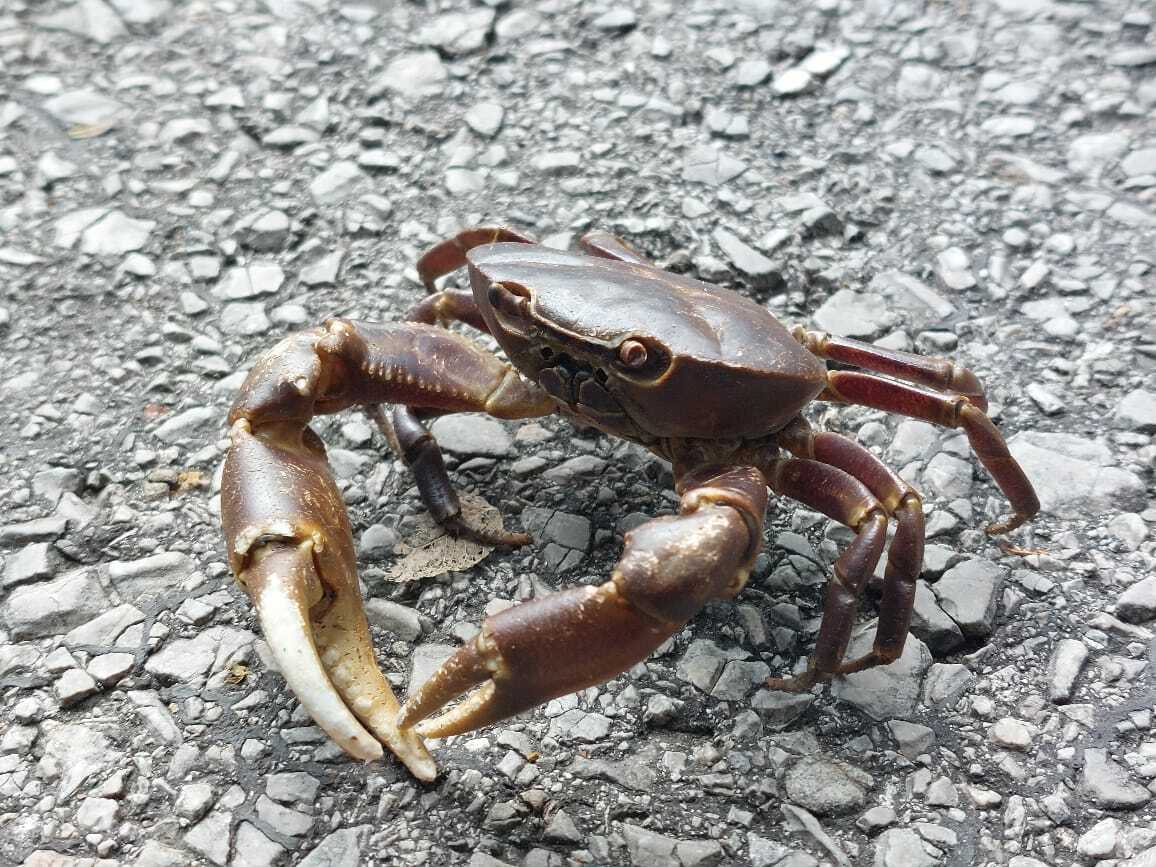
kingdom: Animalia
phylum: Arthropoda
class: Malacostraca
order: Decapoda
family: Pseudothelphusidae
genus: Pseudothelphusa
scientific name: Pseudothelphusa morelosis
